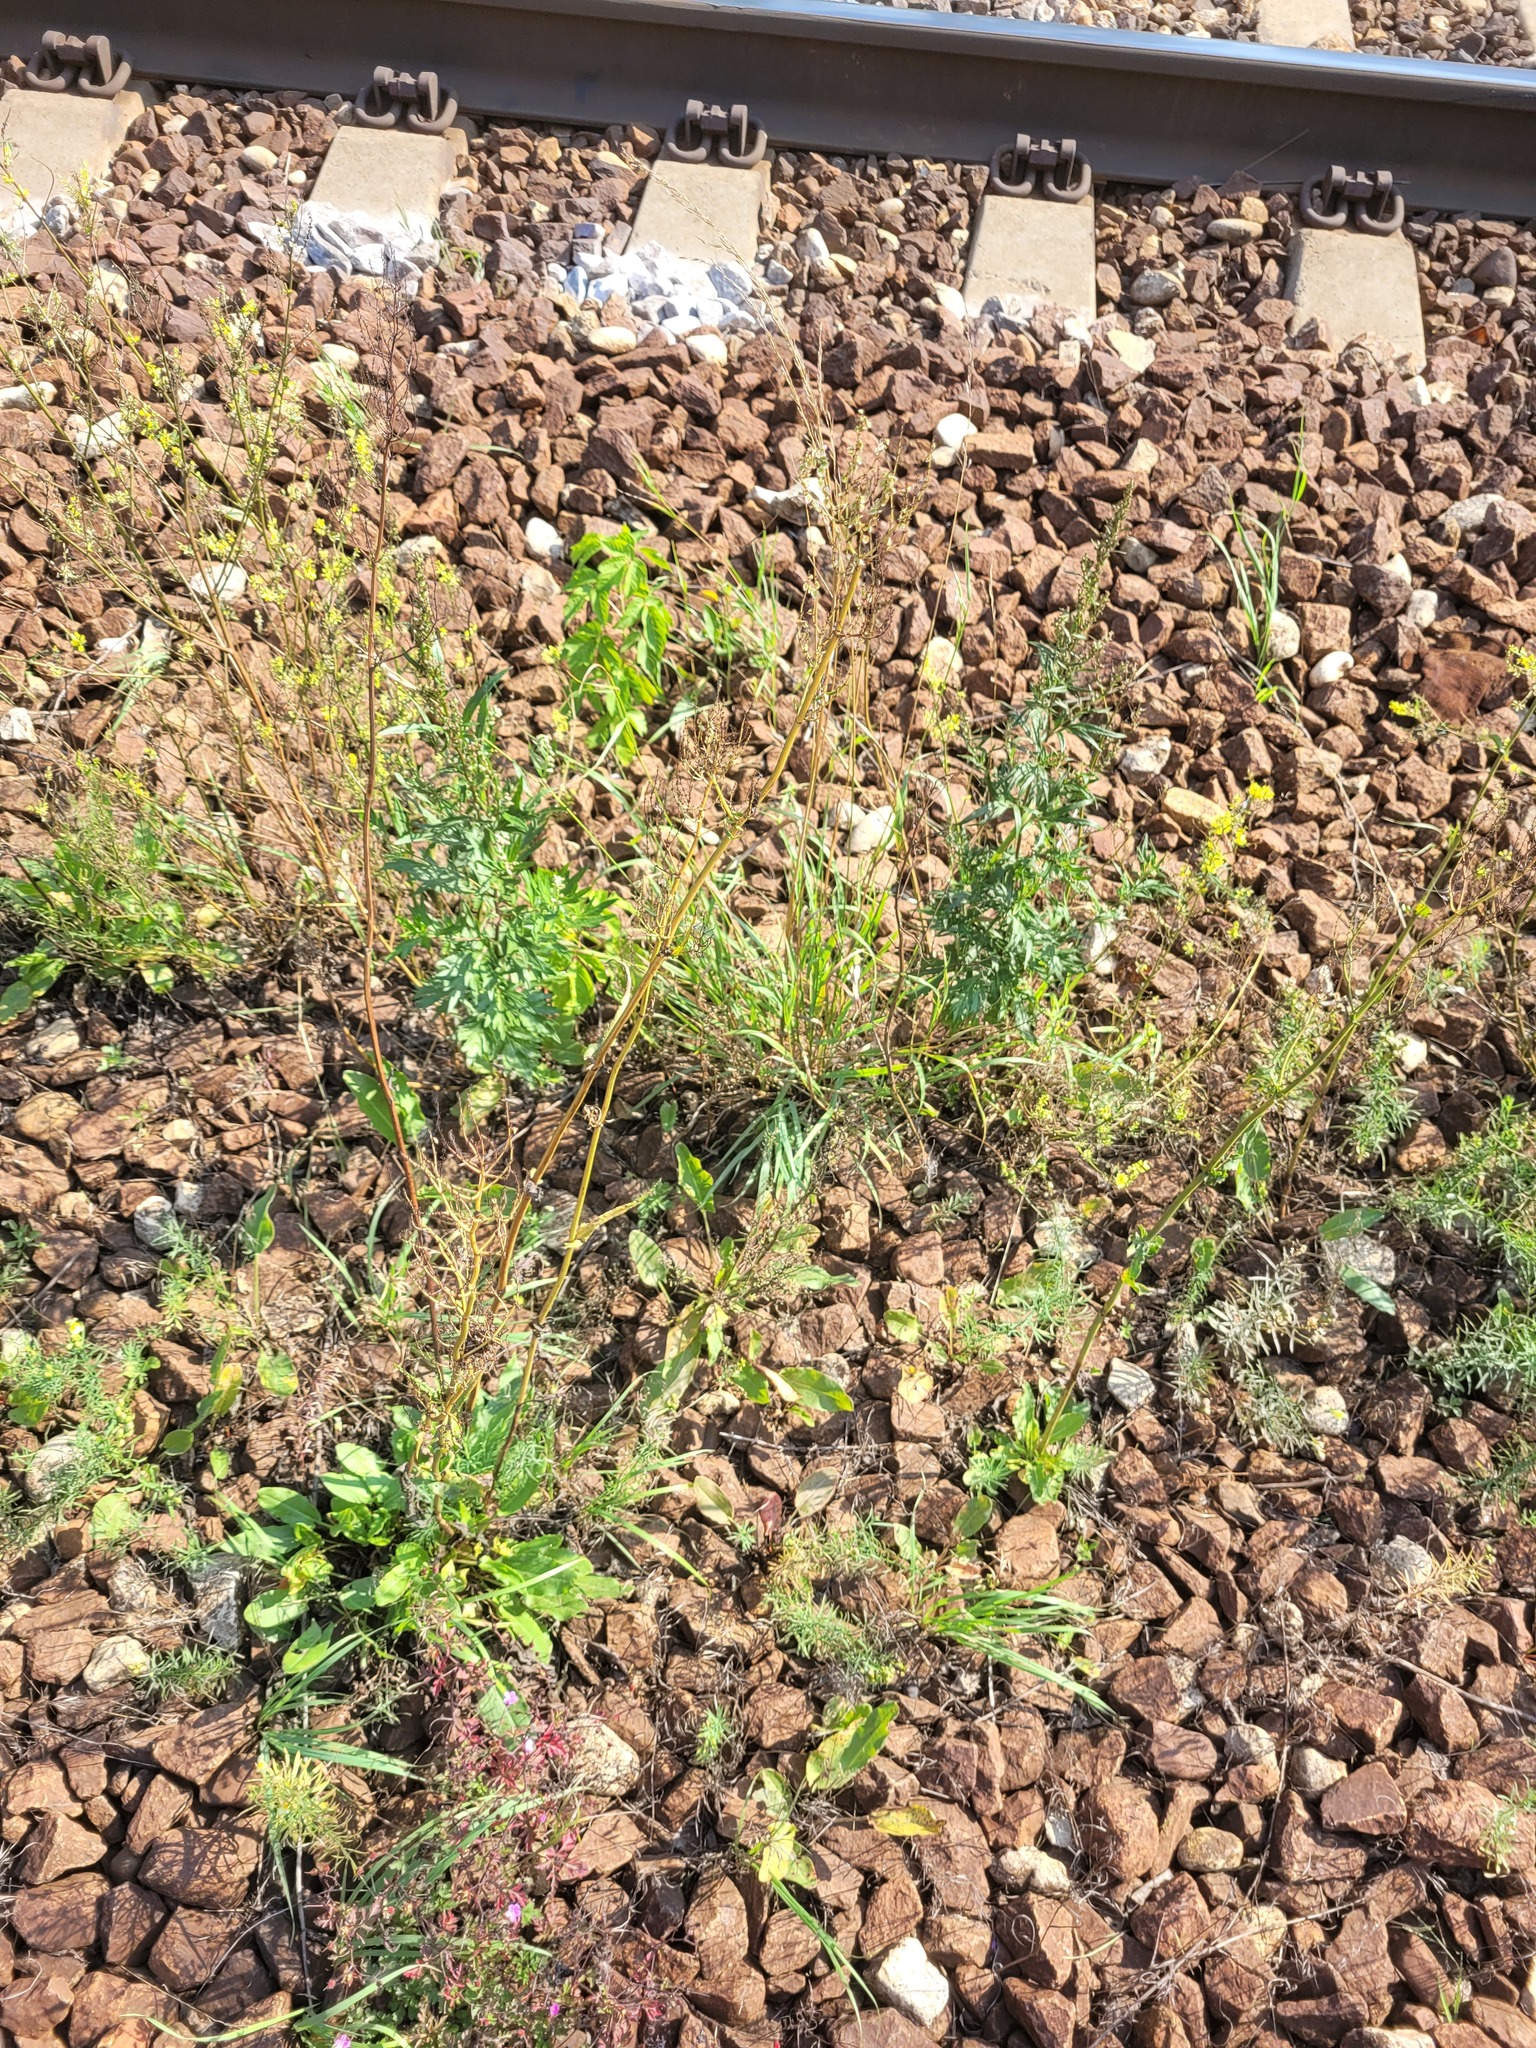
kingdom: Plantae
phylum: Tracheophyta
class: Magnoliopsida
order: Caryophyllales
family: Polygonaceae
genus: Rumex
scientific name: Rumex thyrsiflorus
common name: Garden sorrel
